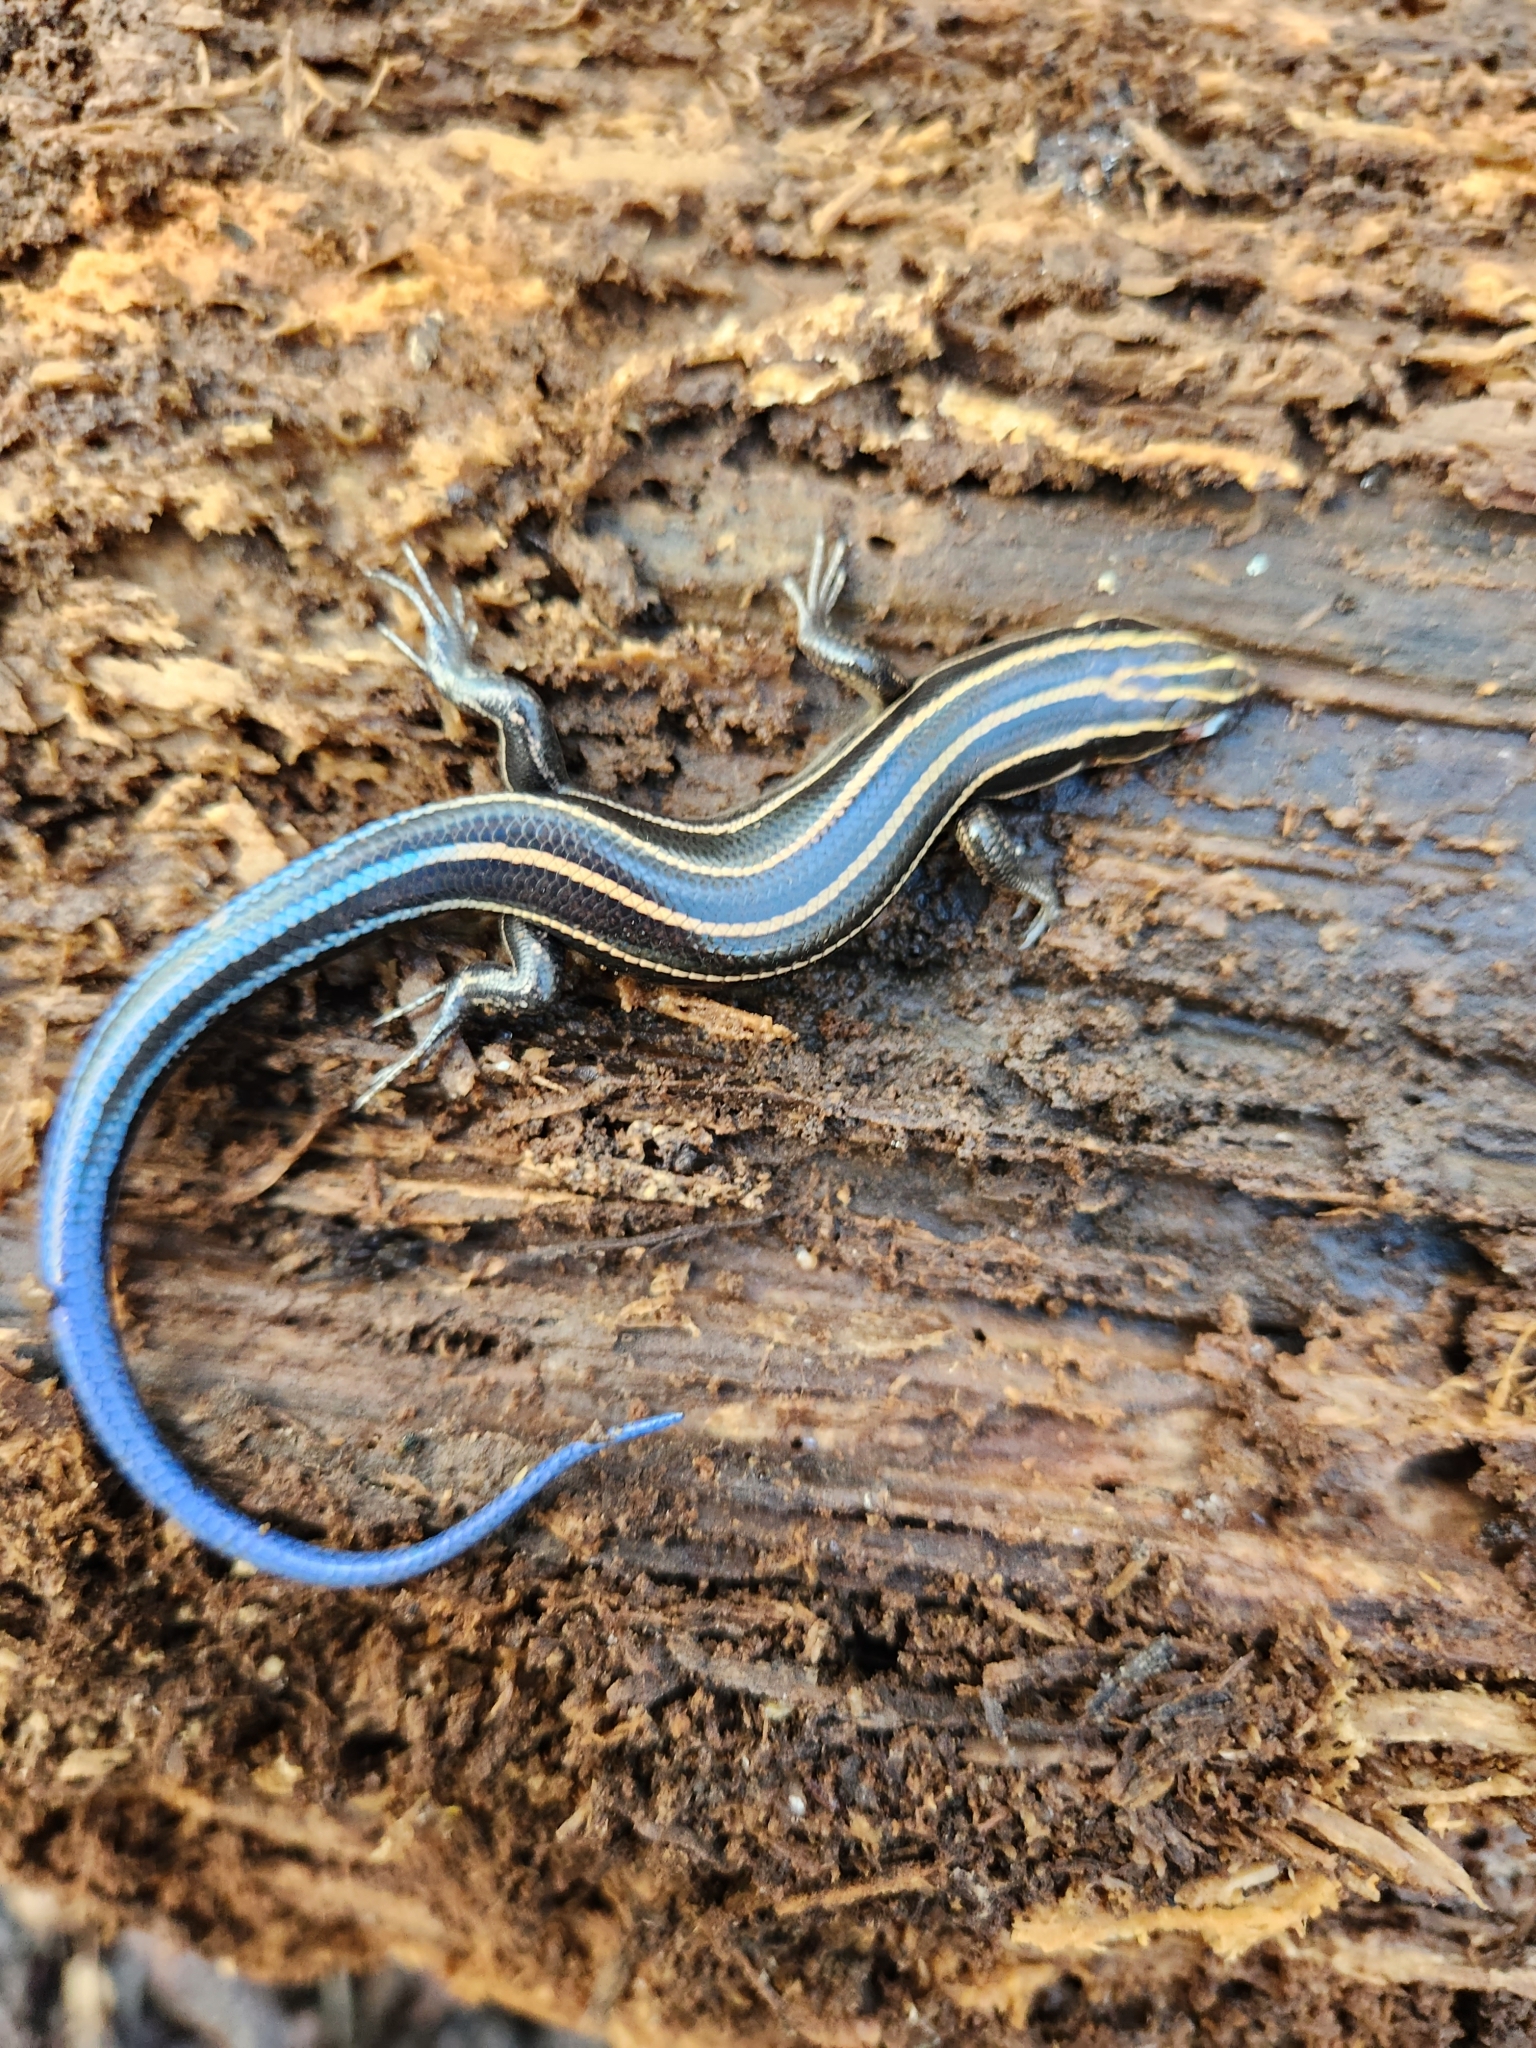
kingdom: Animalia
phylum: Chordata
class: Squamata
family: Scincidae
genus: Plestiodon
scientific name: Plestiodon fasciatus
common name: Five-lined skink
